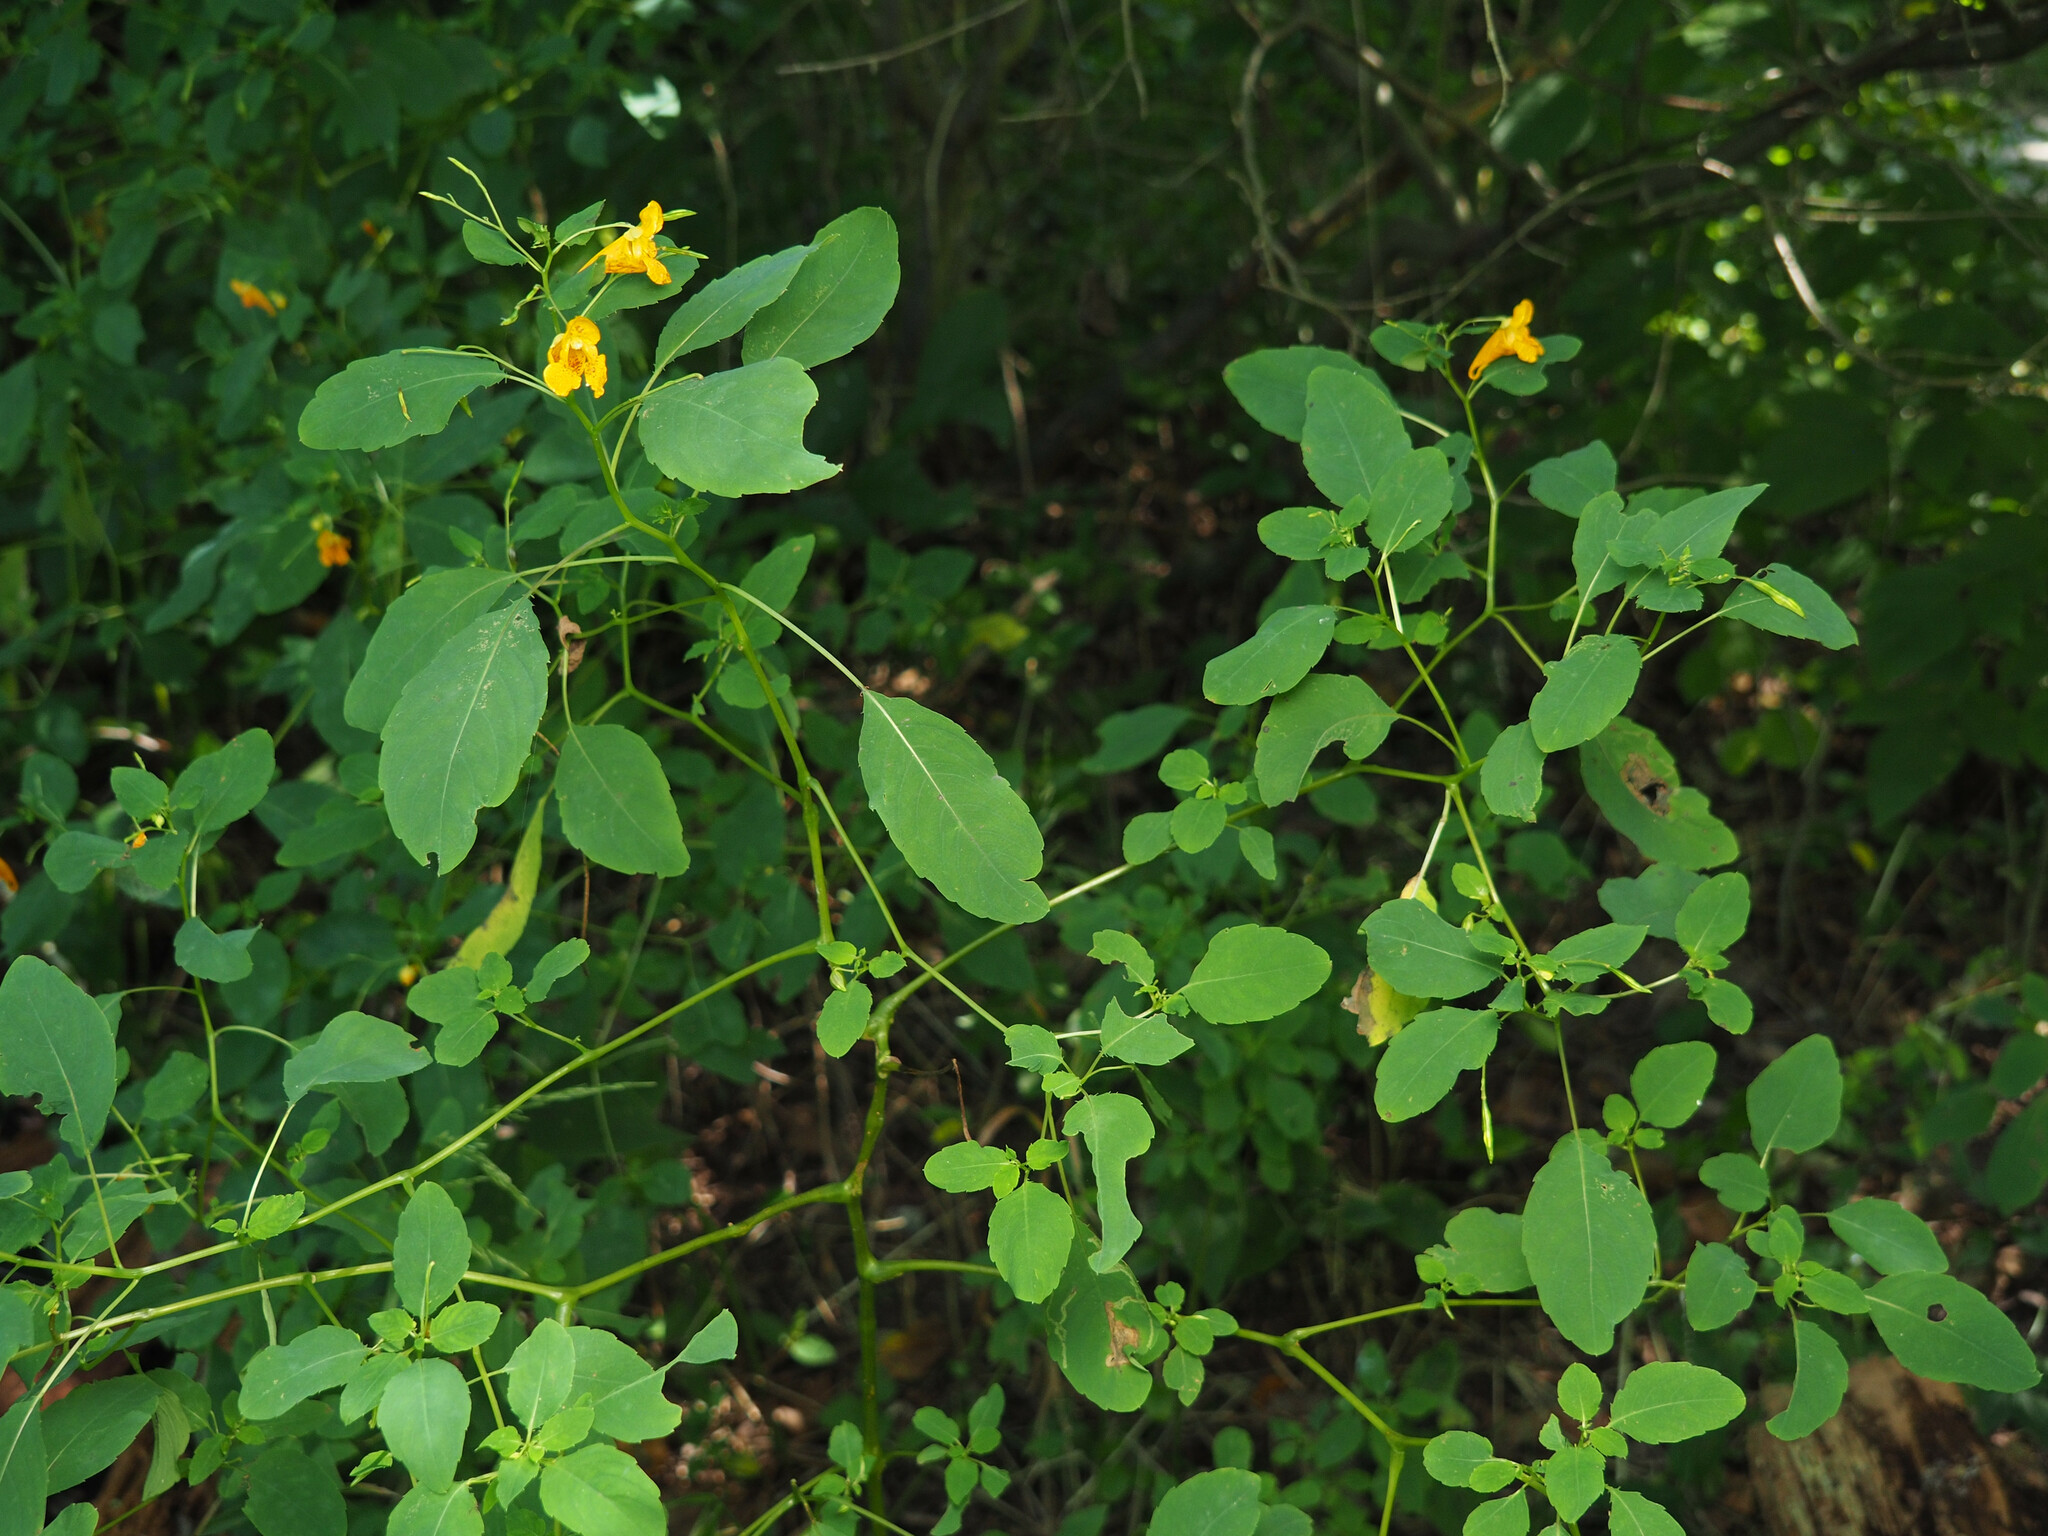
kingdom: Plantae
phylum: Tracheophyta
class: Magnoliopsida
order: Ericales
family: Balsaminaceae
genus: Impatiens
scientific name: Impatiens capensis
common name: Orange balsam
